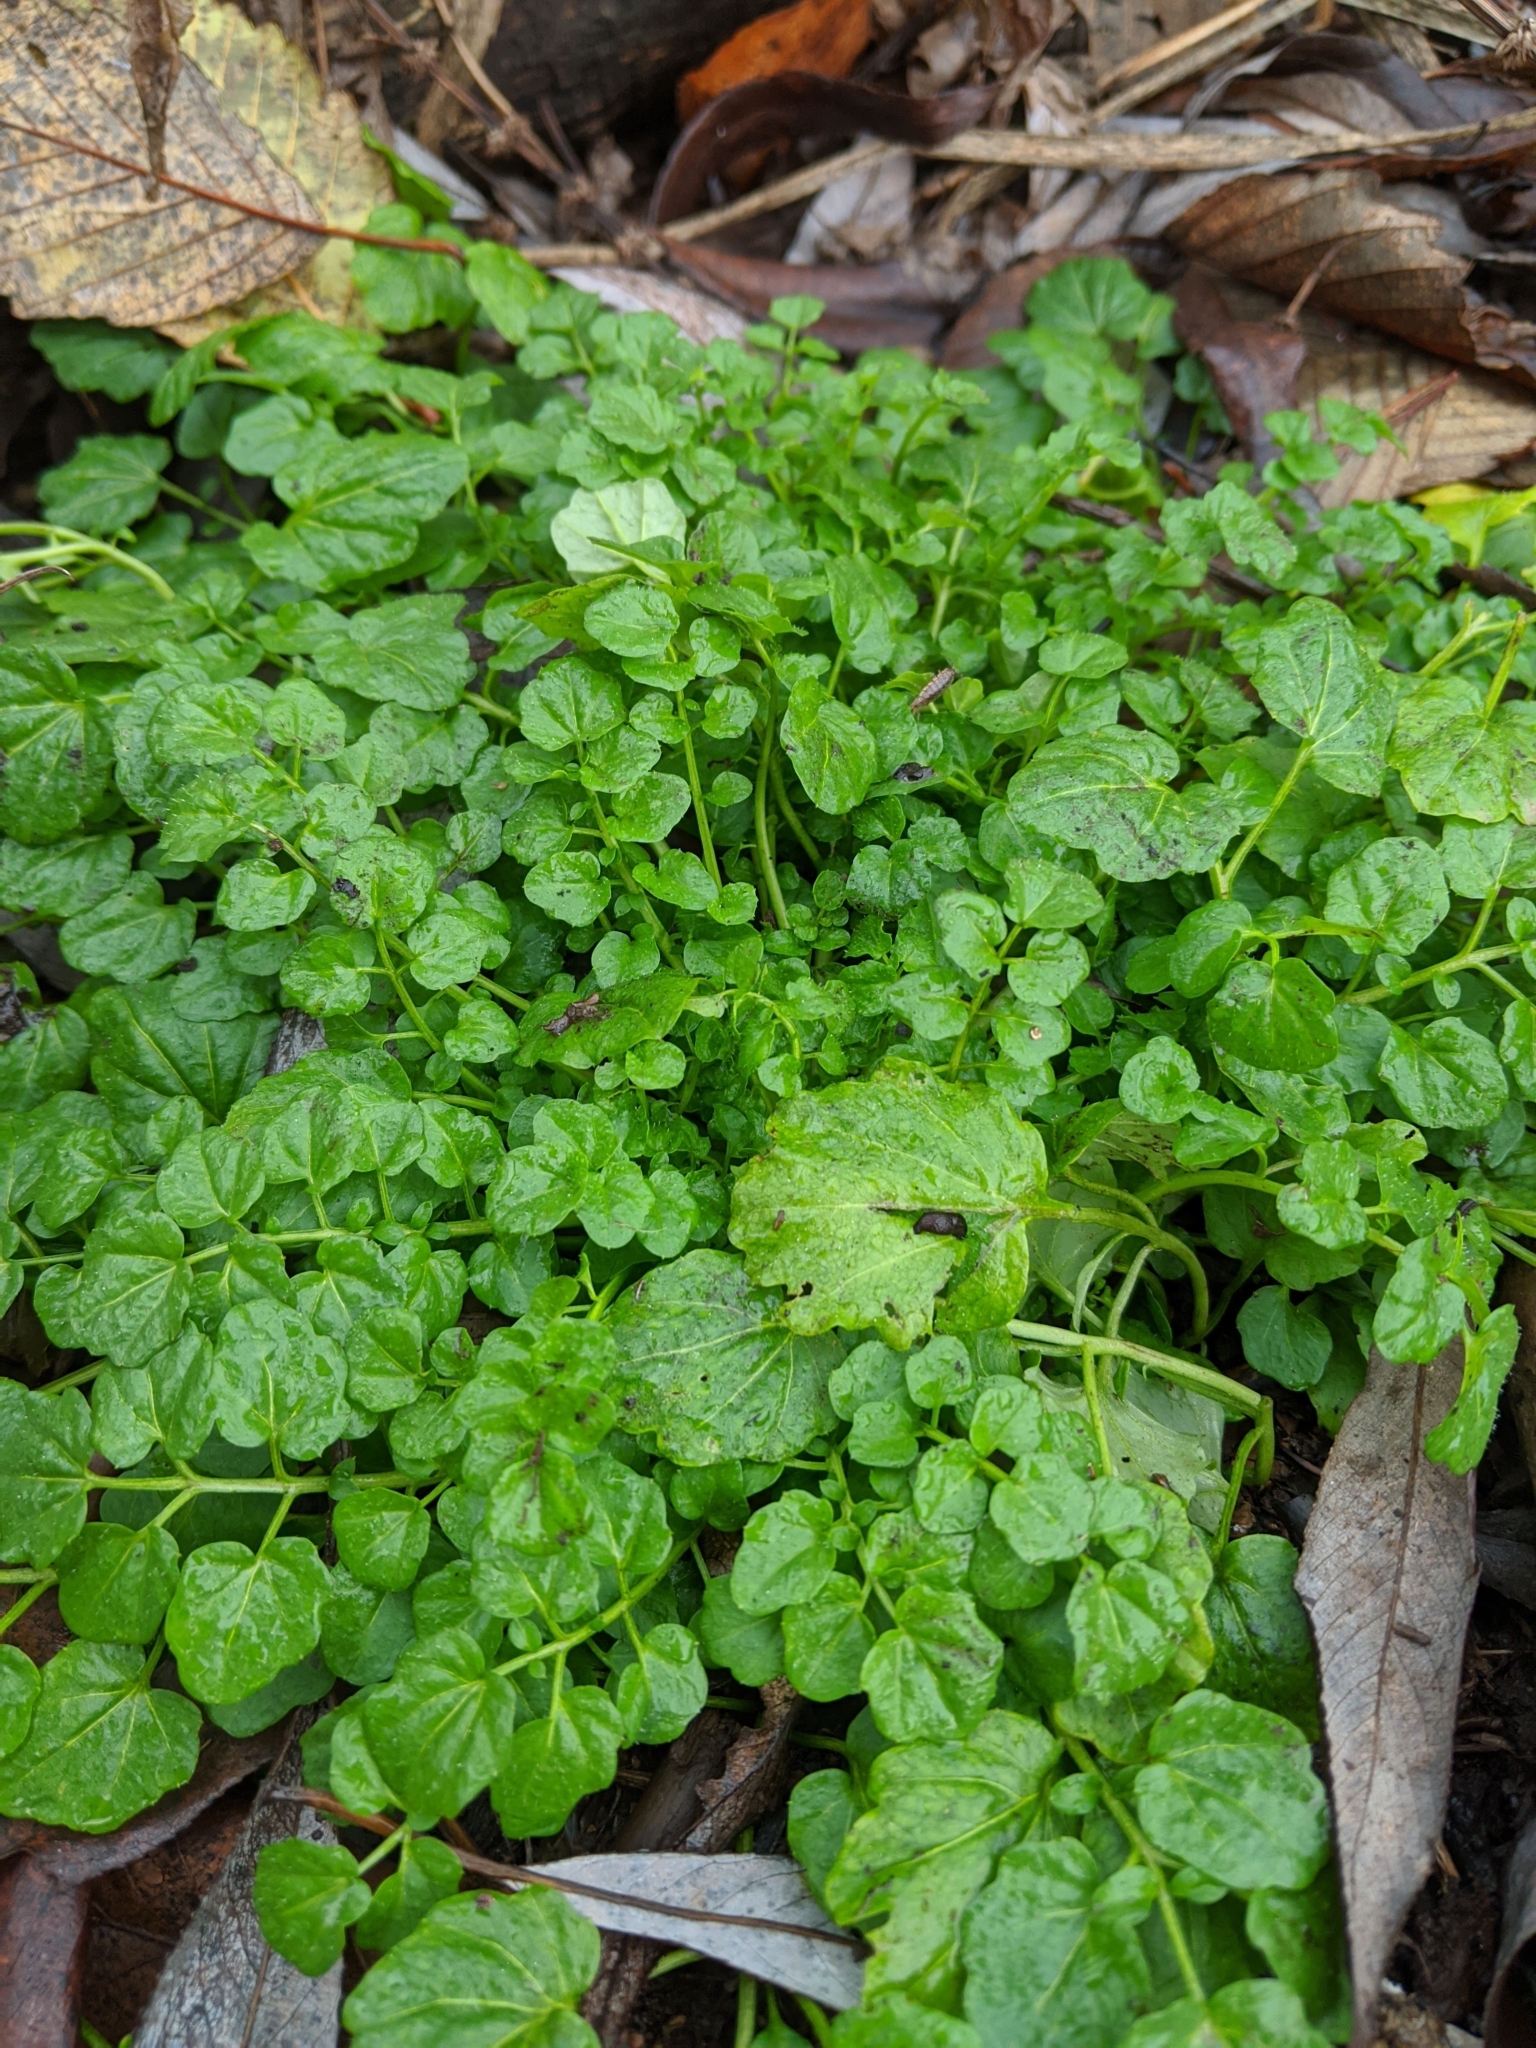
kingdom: Plantae
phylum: Tracheophyta
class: Magnoliopsida
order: Brassicales
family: Brassicaceae
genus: Cardamine
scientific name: Cardamine flexuosa
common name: Woodland bittercress
